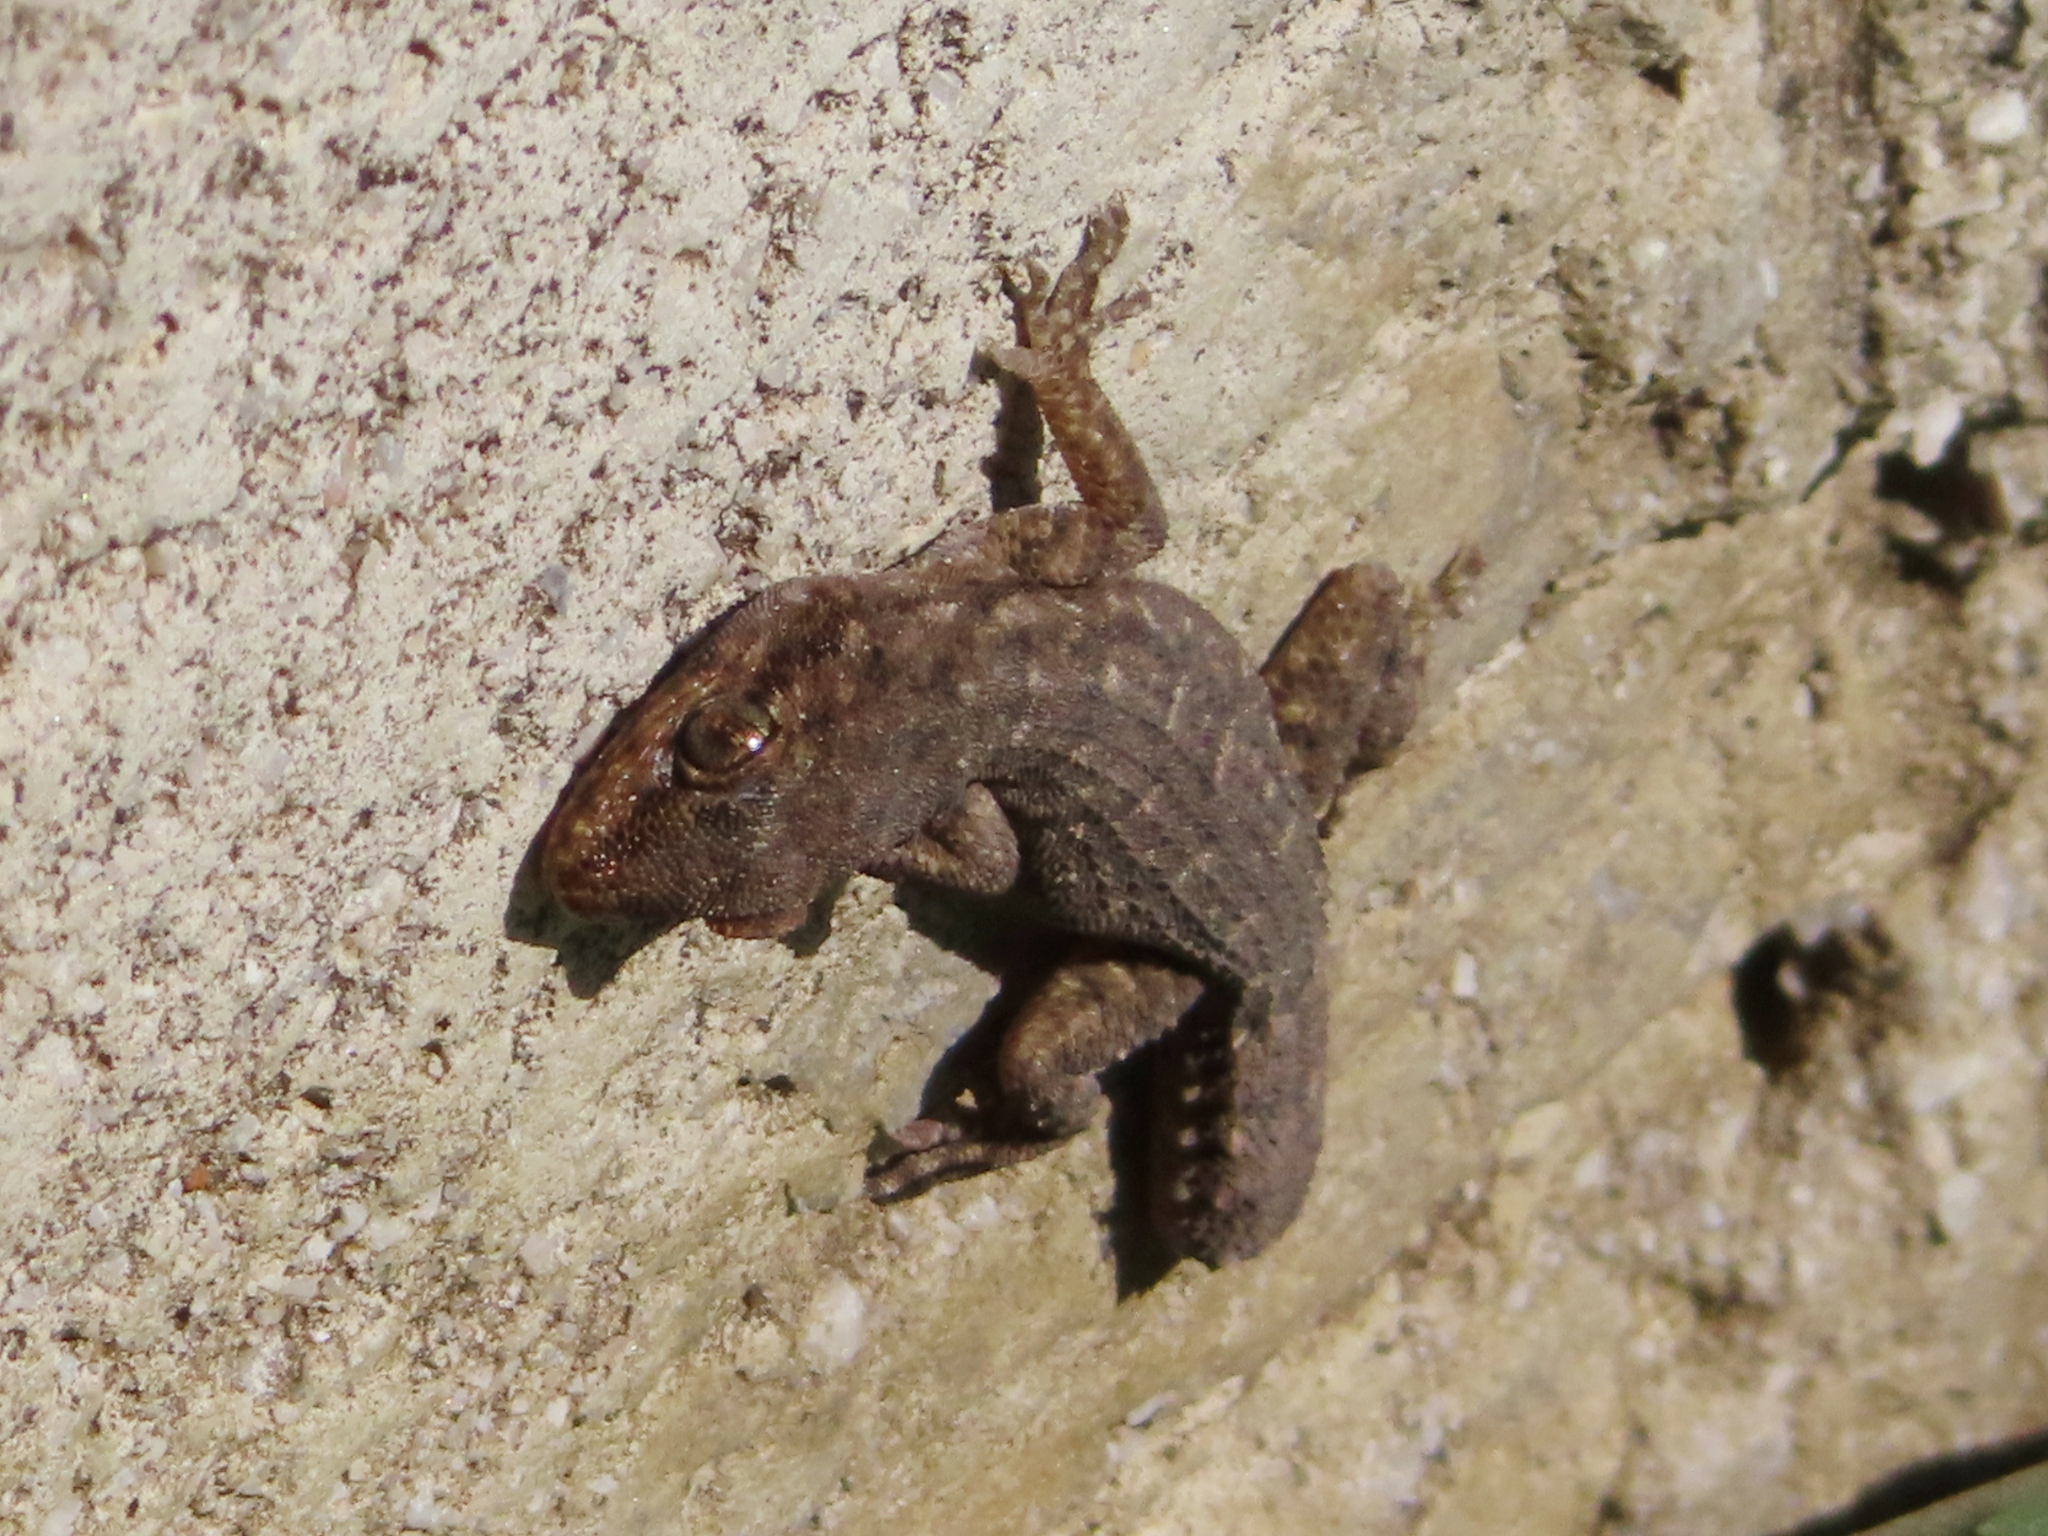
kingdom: Animalia
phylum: Chordata
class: Squamata
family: Gekkonidae
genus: Mediodactylus
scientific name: Mediodactylus oertzeni
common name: Mediterranean thin-toed gecko
